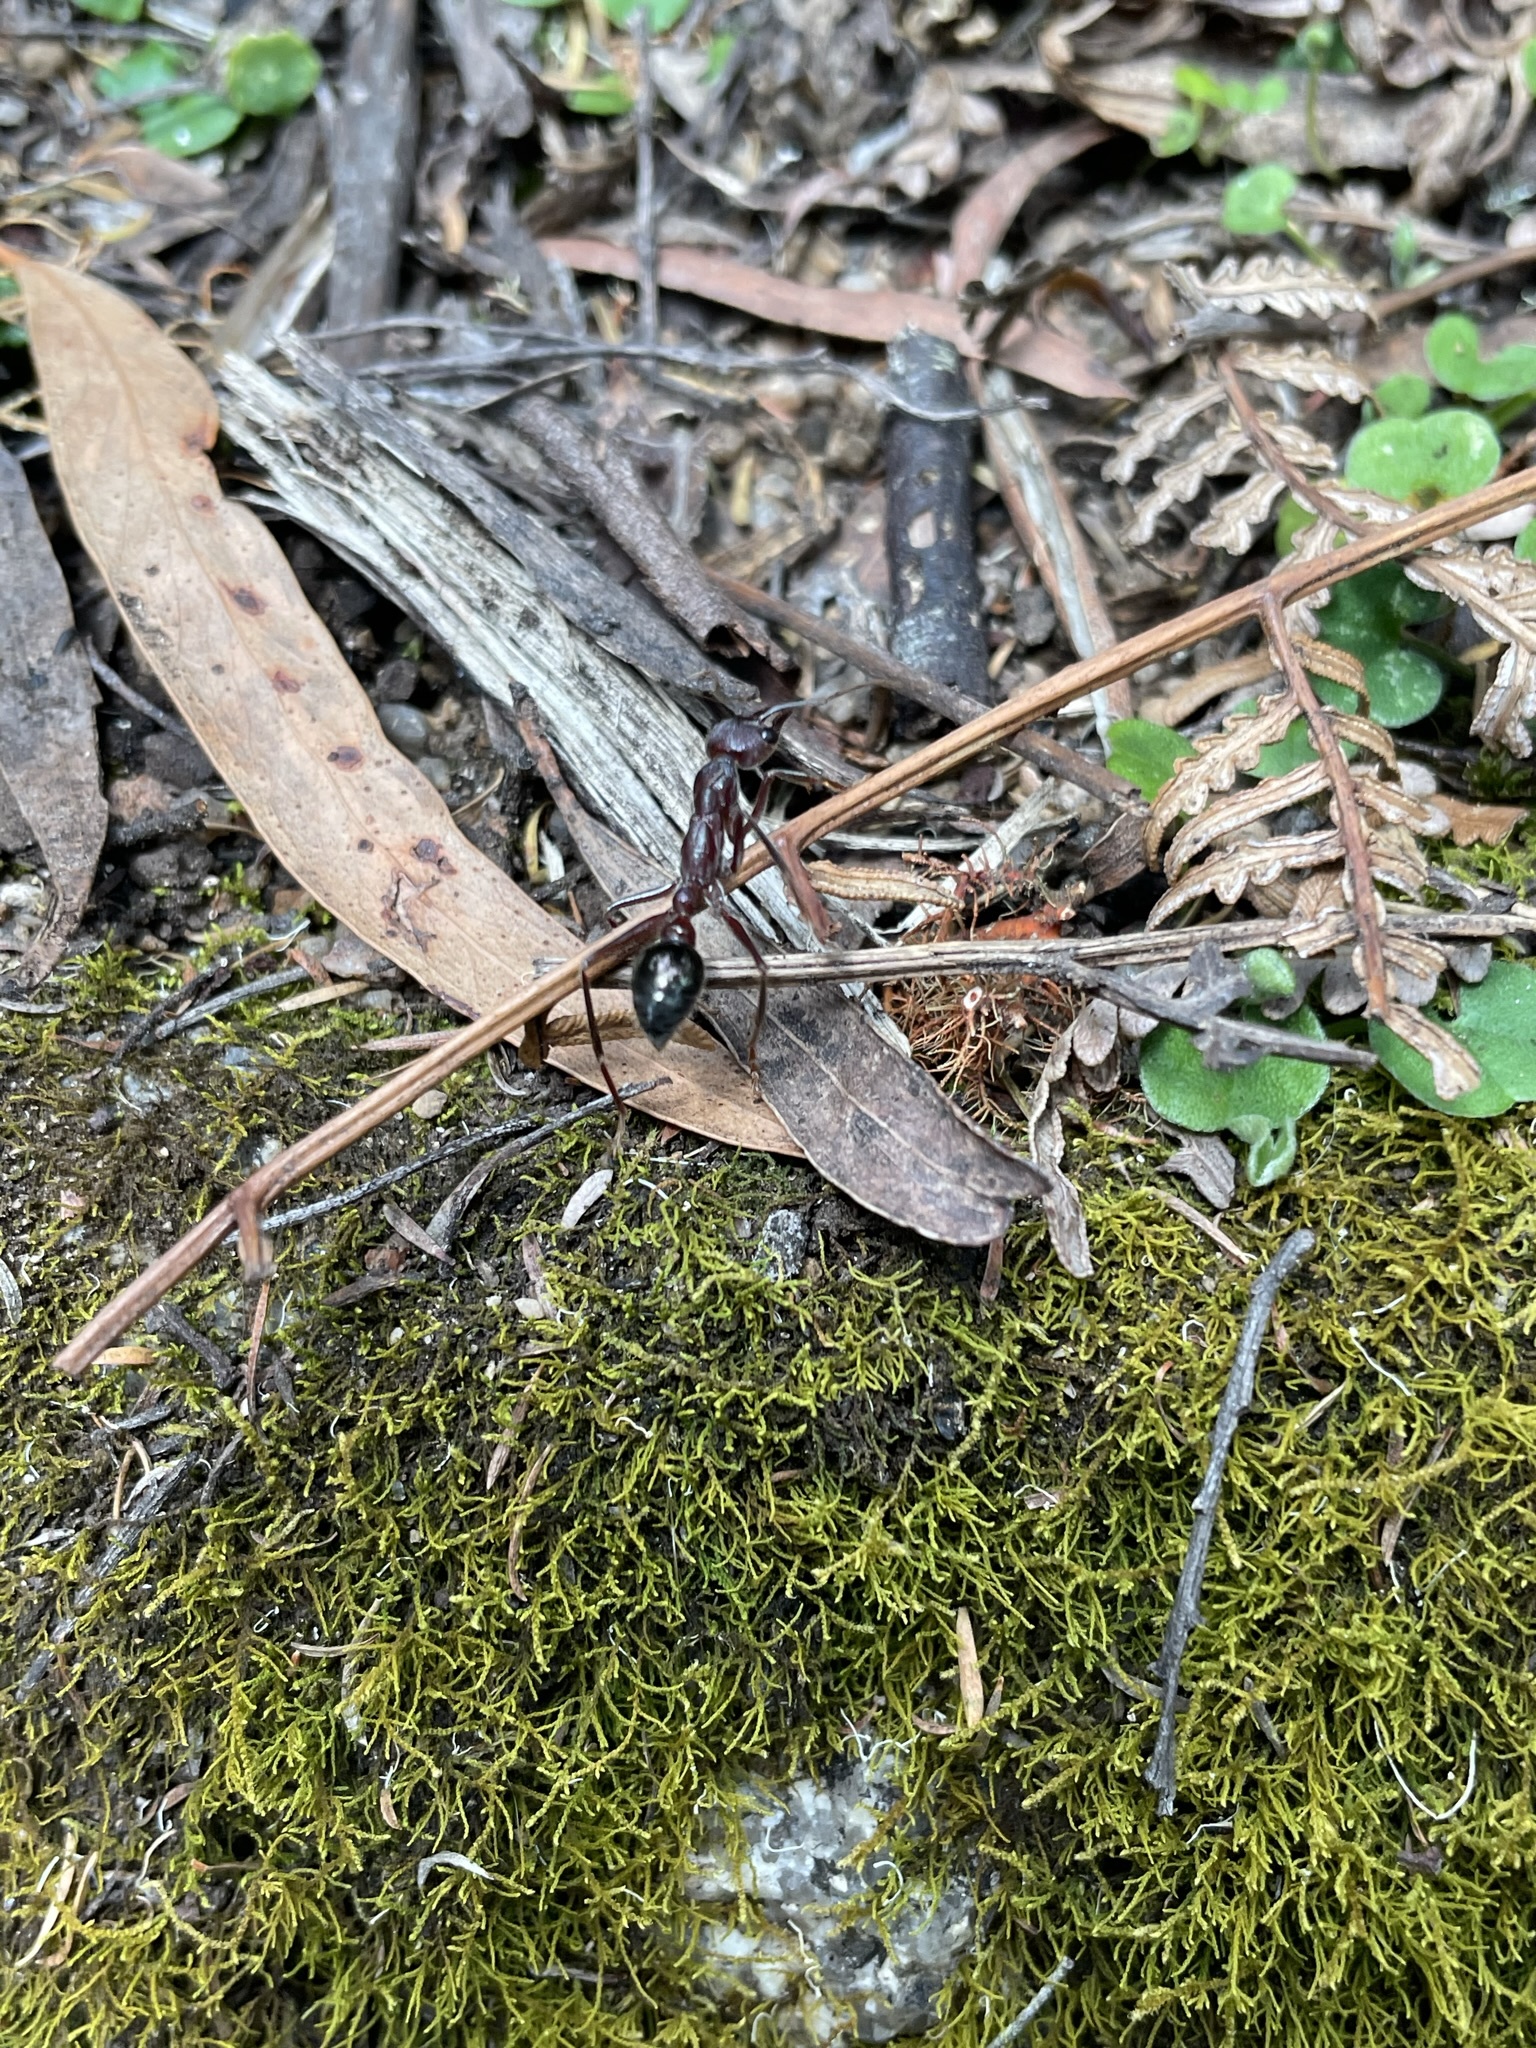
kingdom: Animalia
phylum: Arthropoda
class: Insecta
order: Hymenoptera
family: Formicidae
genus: Myrmecia
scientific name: Myrmecia forficata
